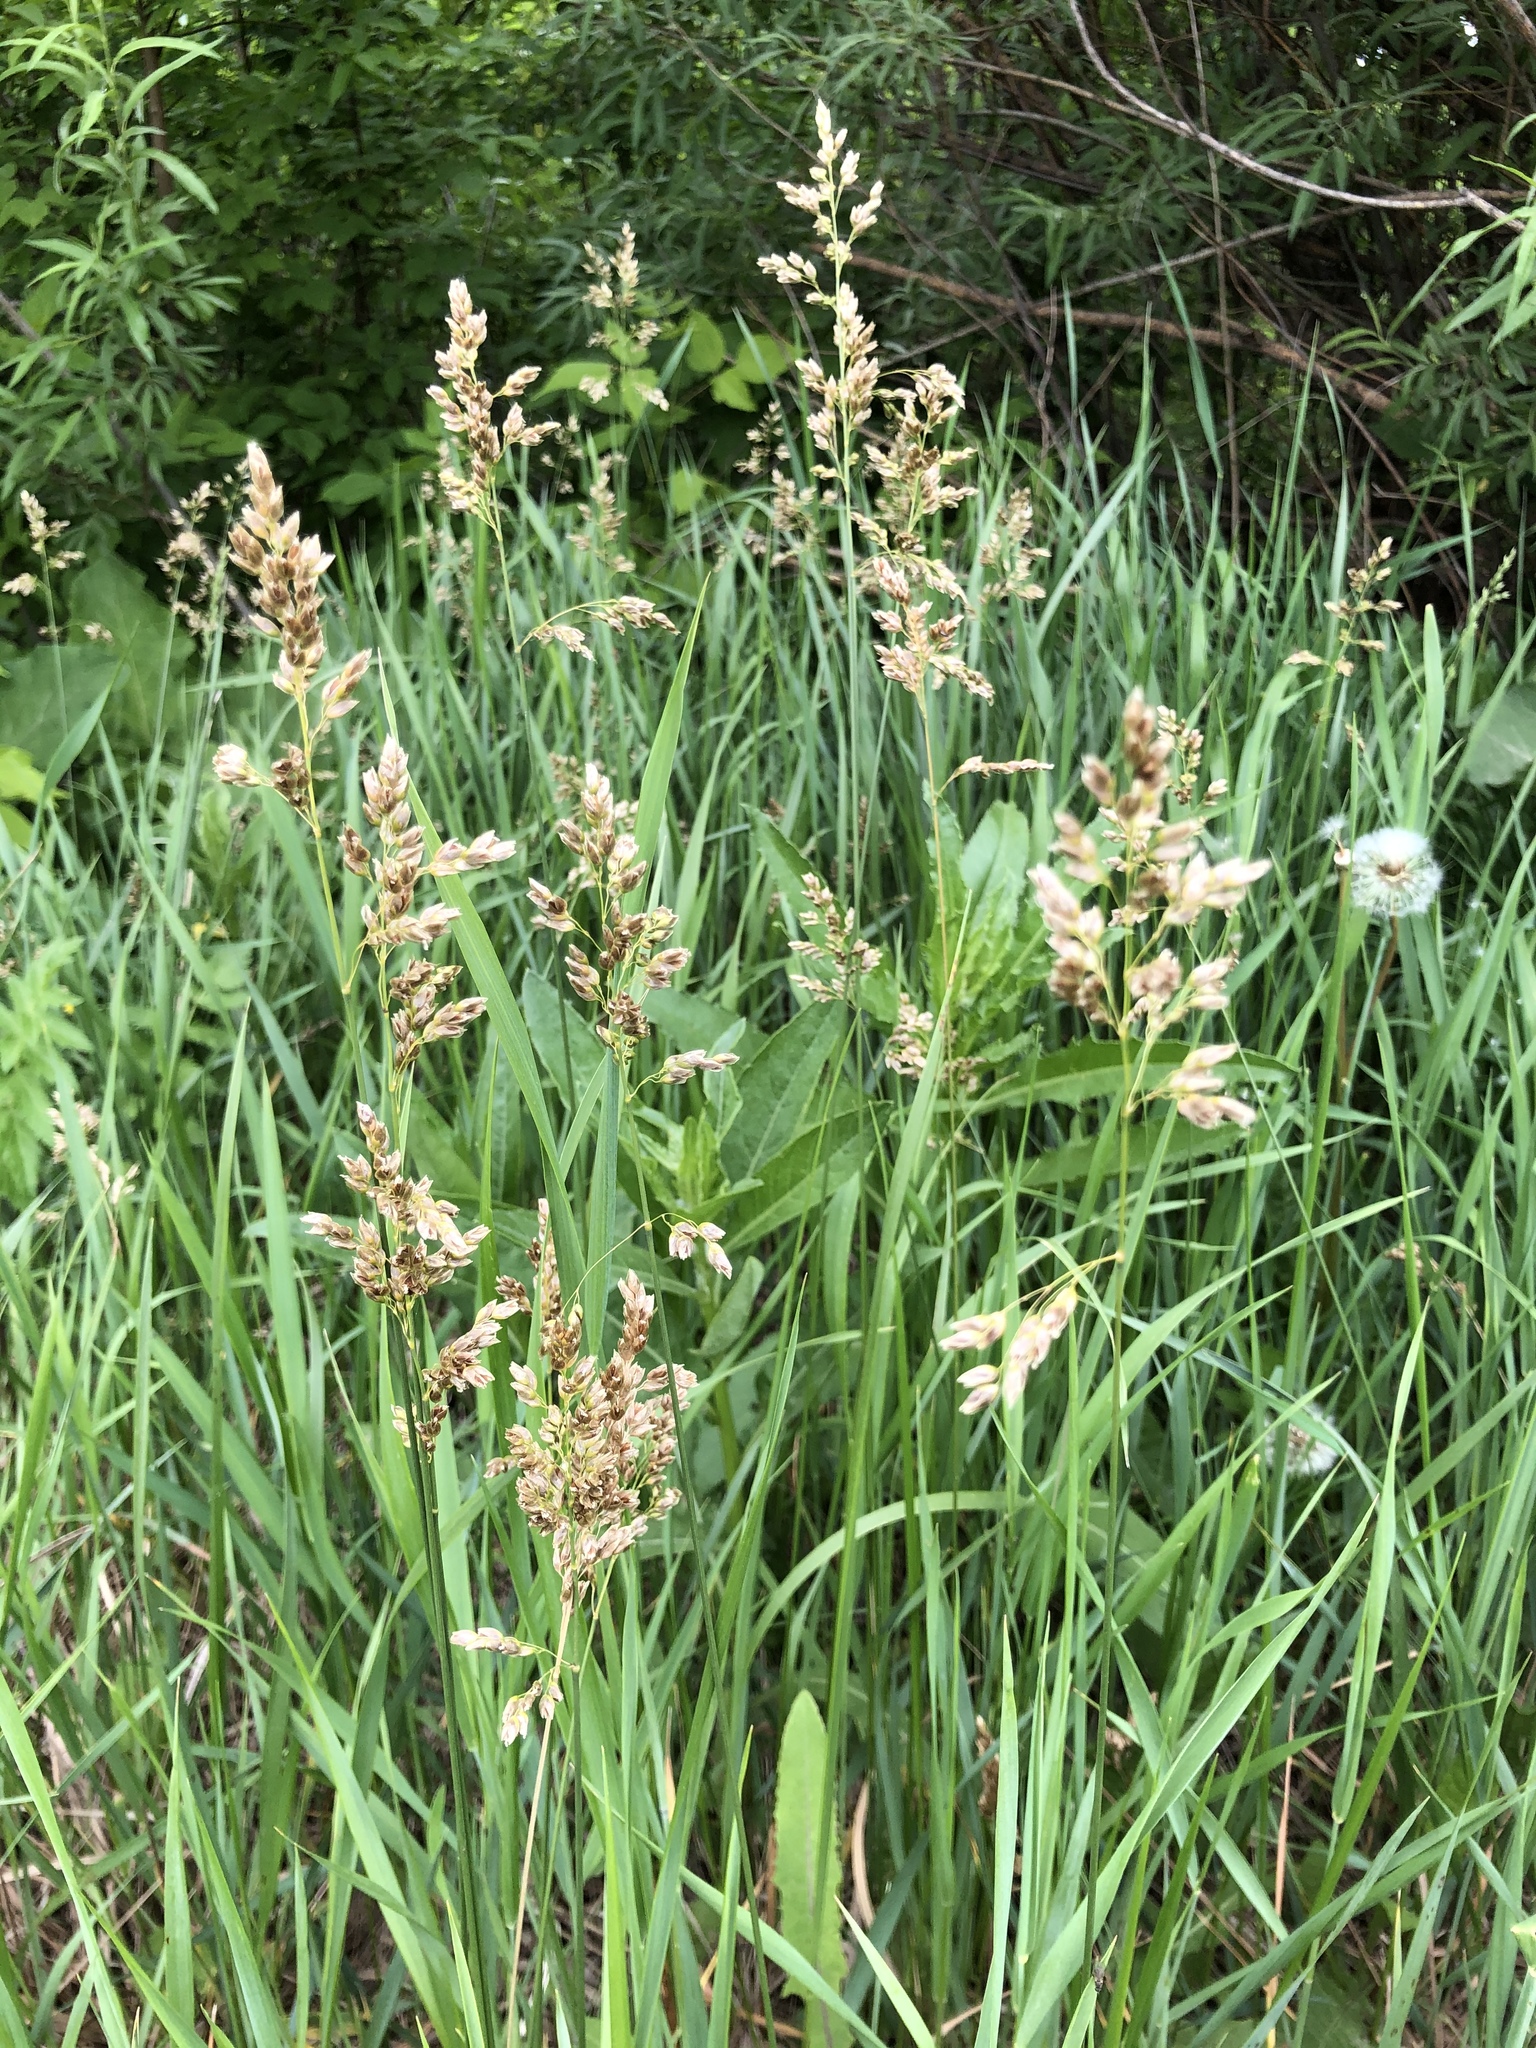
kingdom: Plantae
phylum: Tracheophyta
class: Liliopsida
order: Poales
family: Poaceae
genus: Anthoxanthum
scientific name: Anthoxanthum nitens
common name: Holy grass
